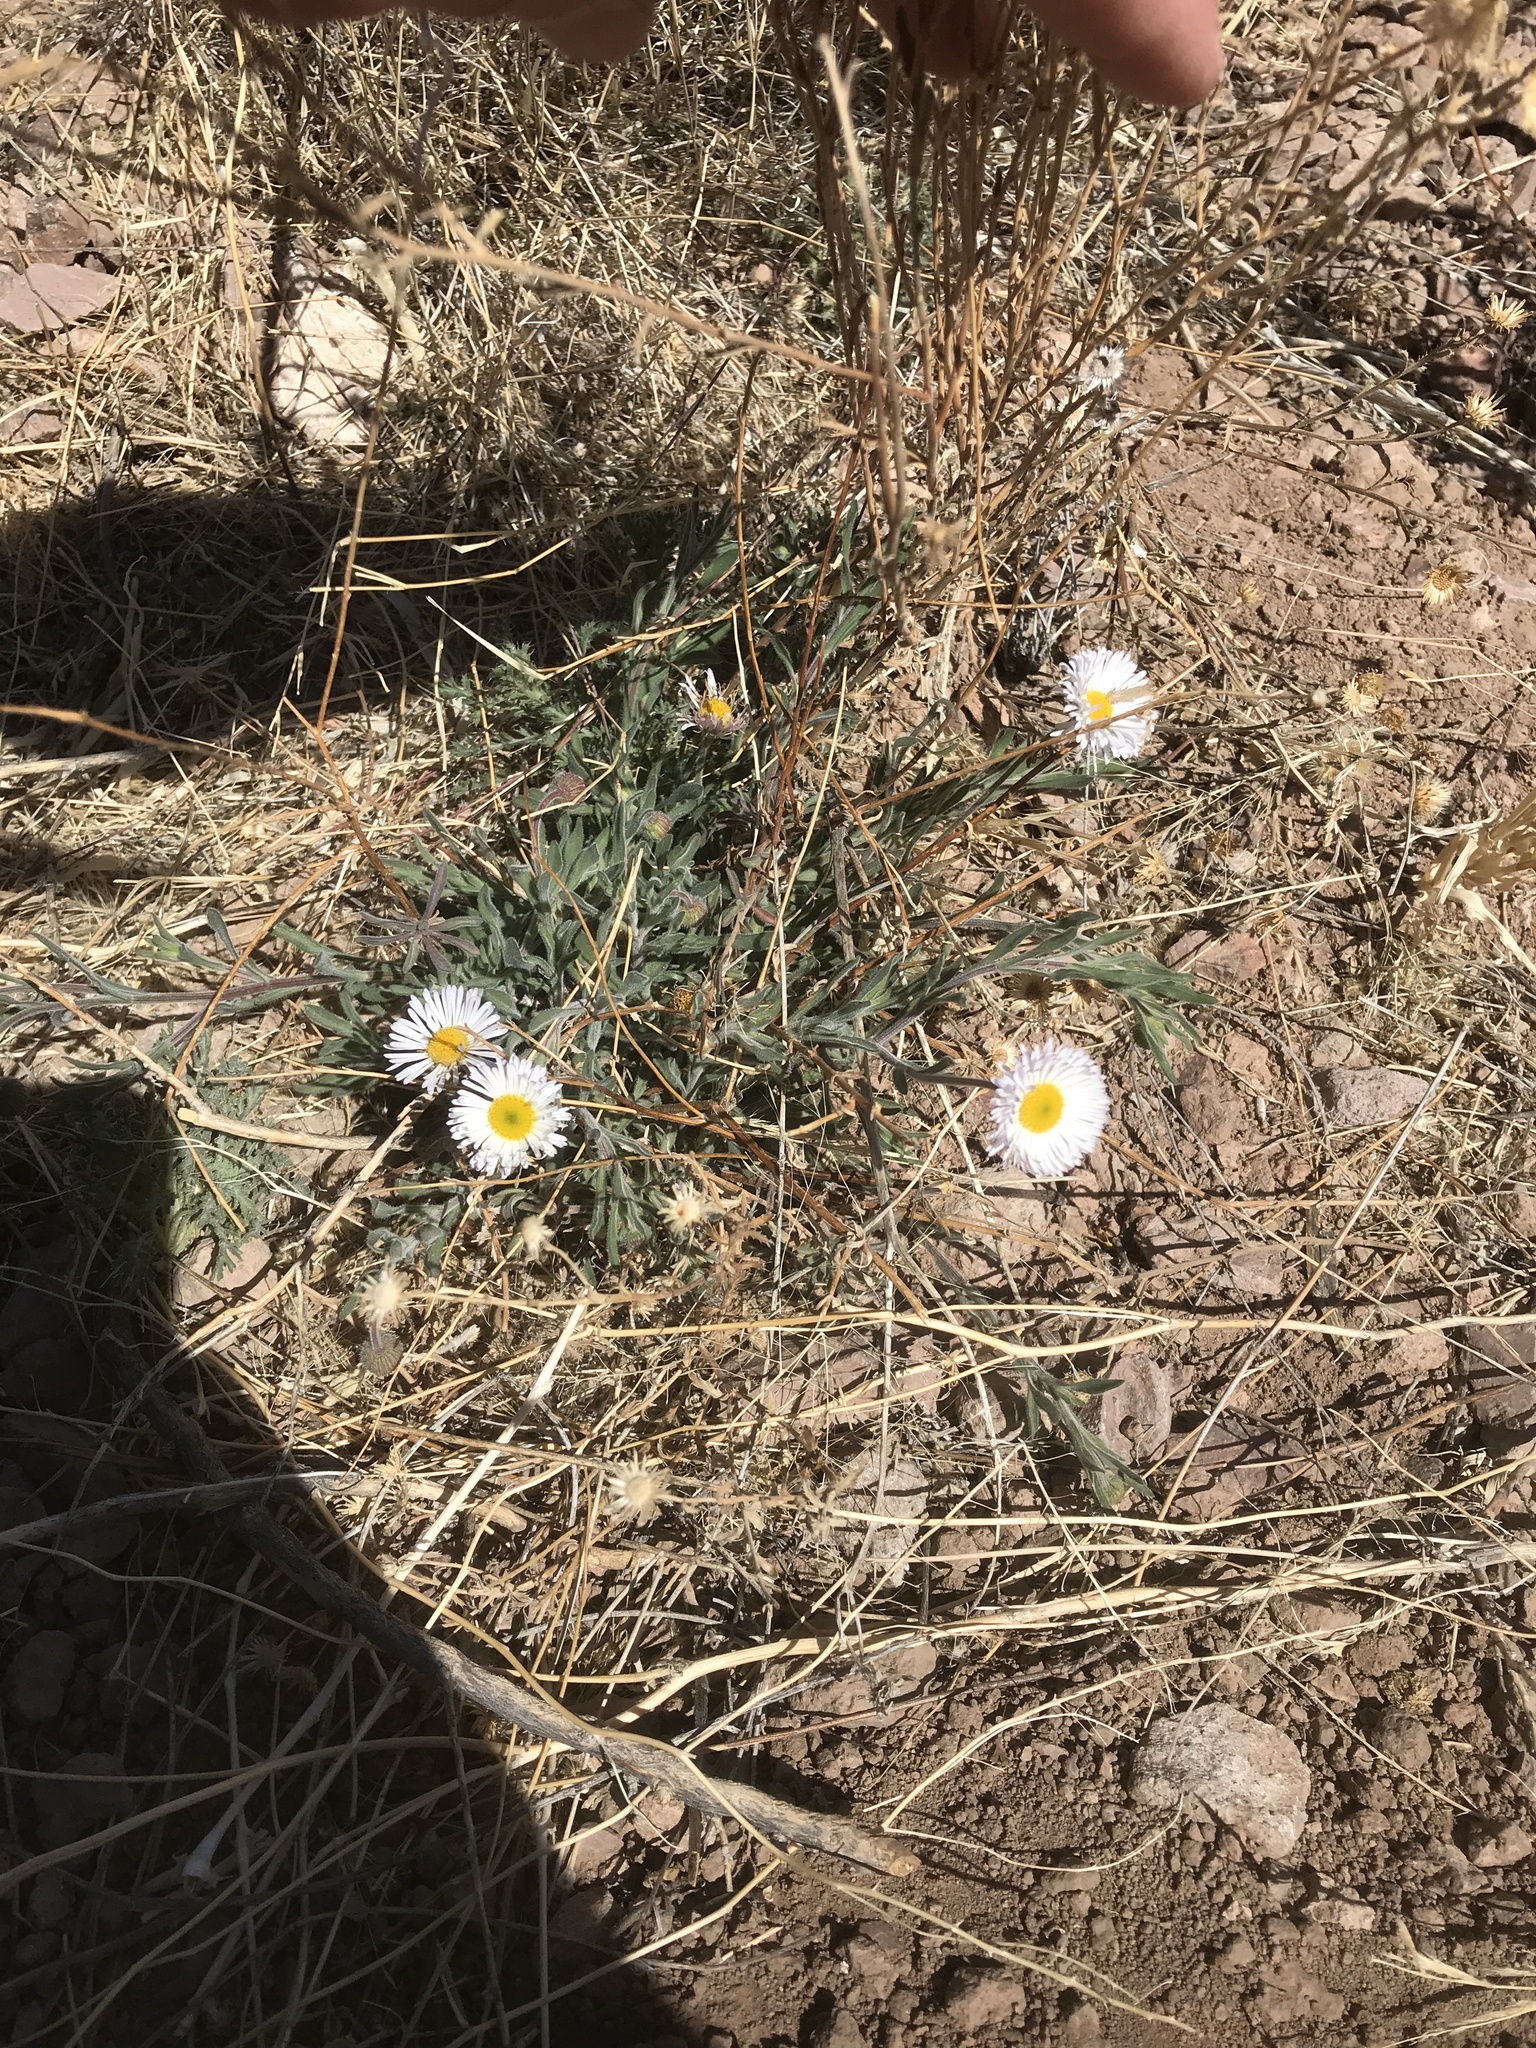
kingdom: Plantae
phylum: Tracheophyta
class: Magnoliopsida
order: Asterales
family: Asteraceae
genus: Erigeron
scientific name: Erigeron
